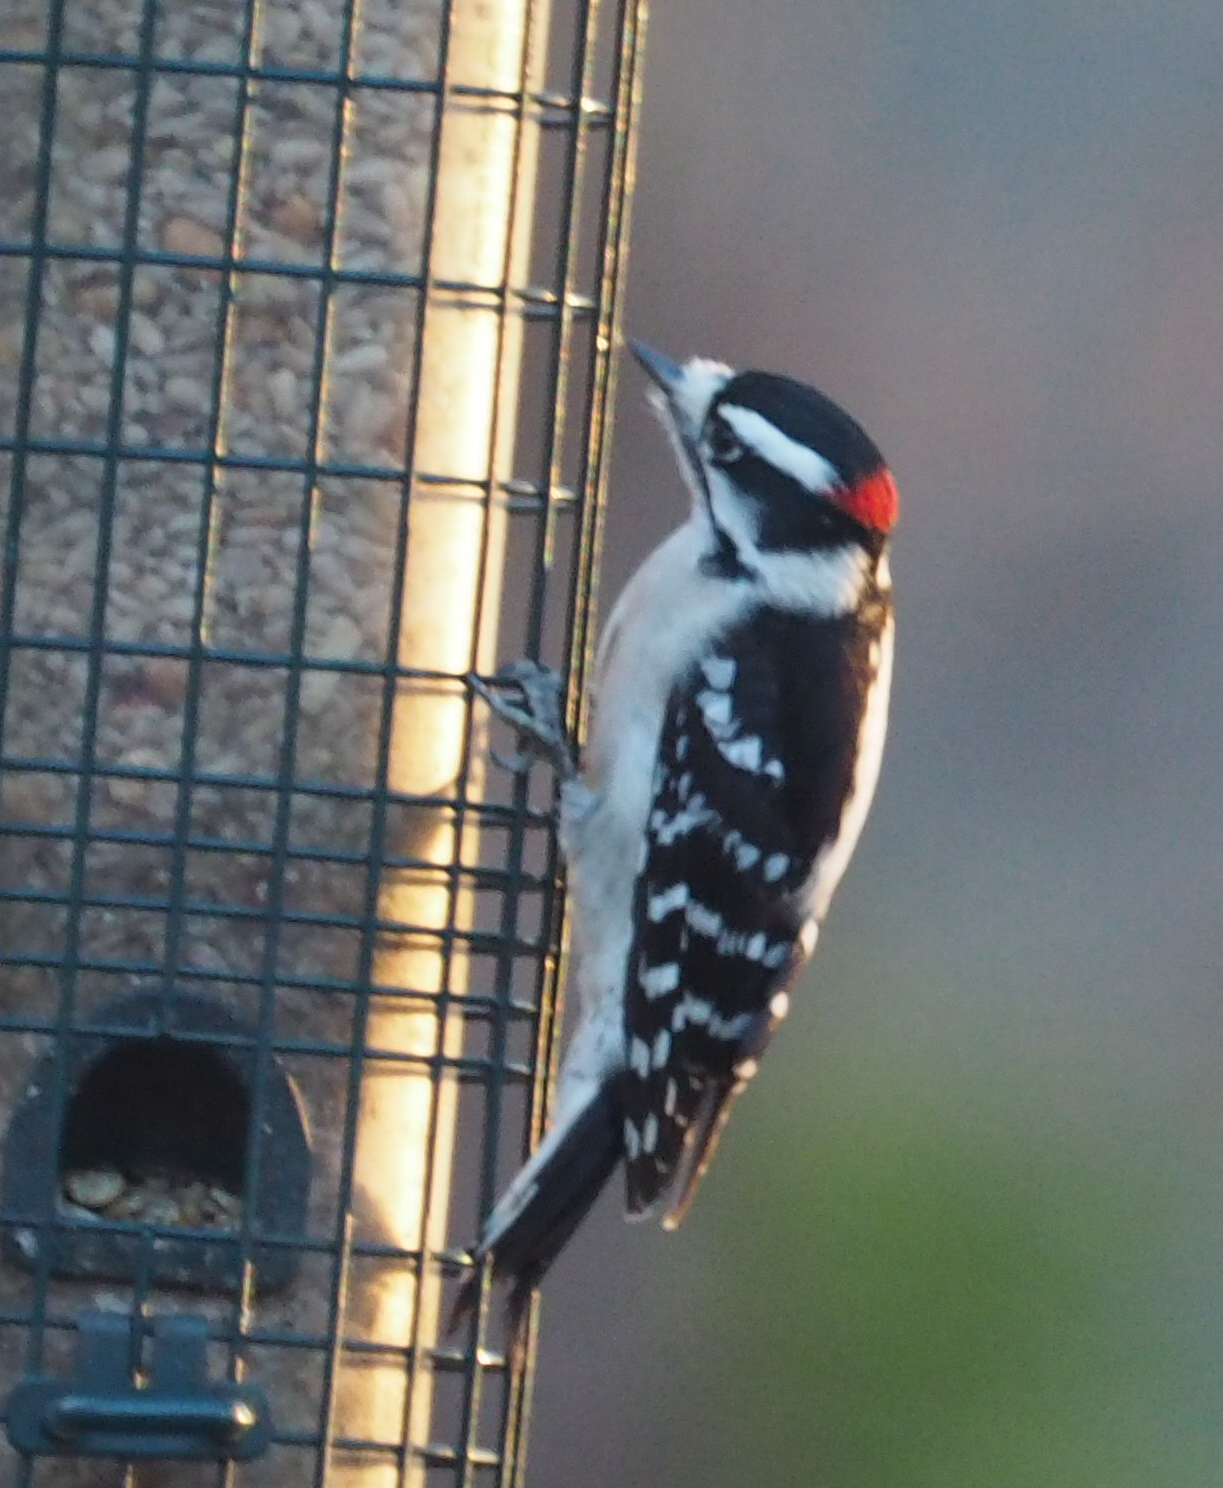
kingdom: Animalia
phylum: Chordata
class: Aves
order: Piciformes
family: Picidae
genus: Dryobates
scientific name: Dryobates pubescens
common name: Downy woodpecker
